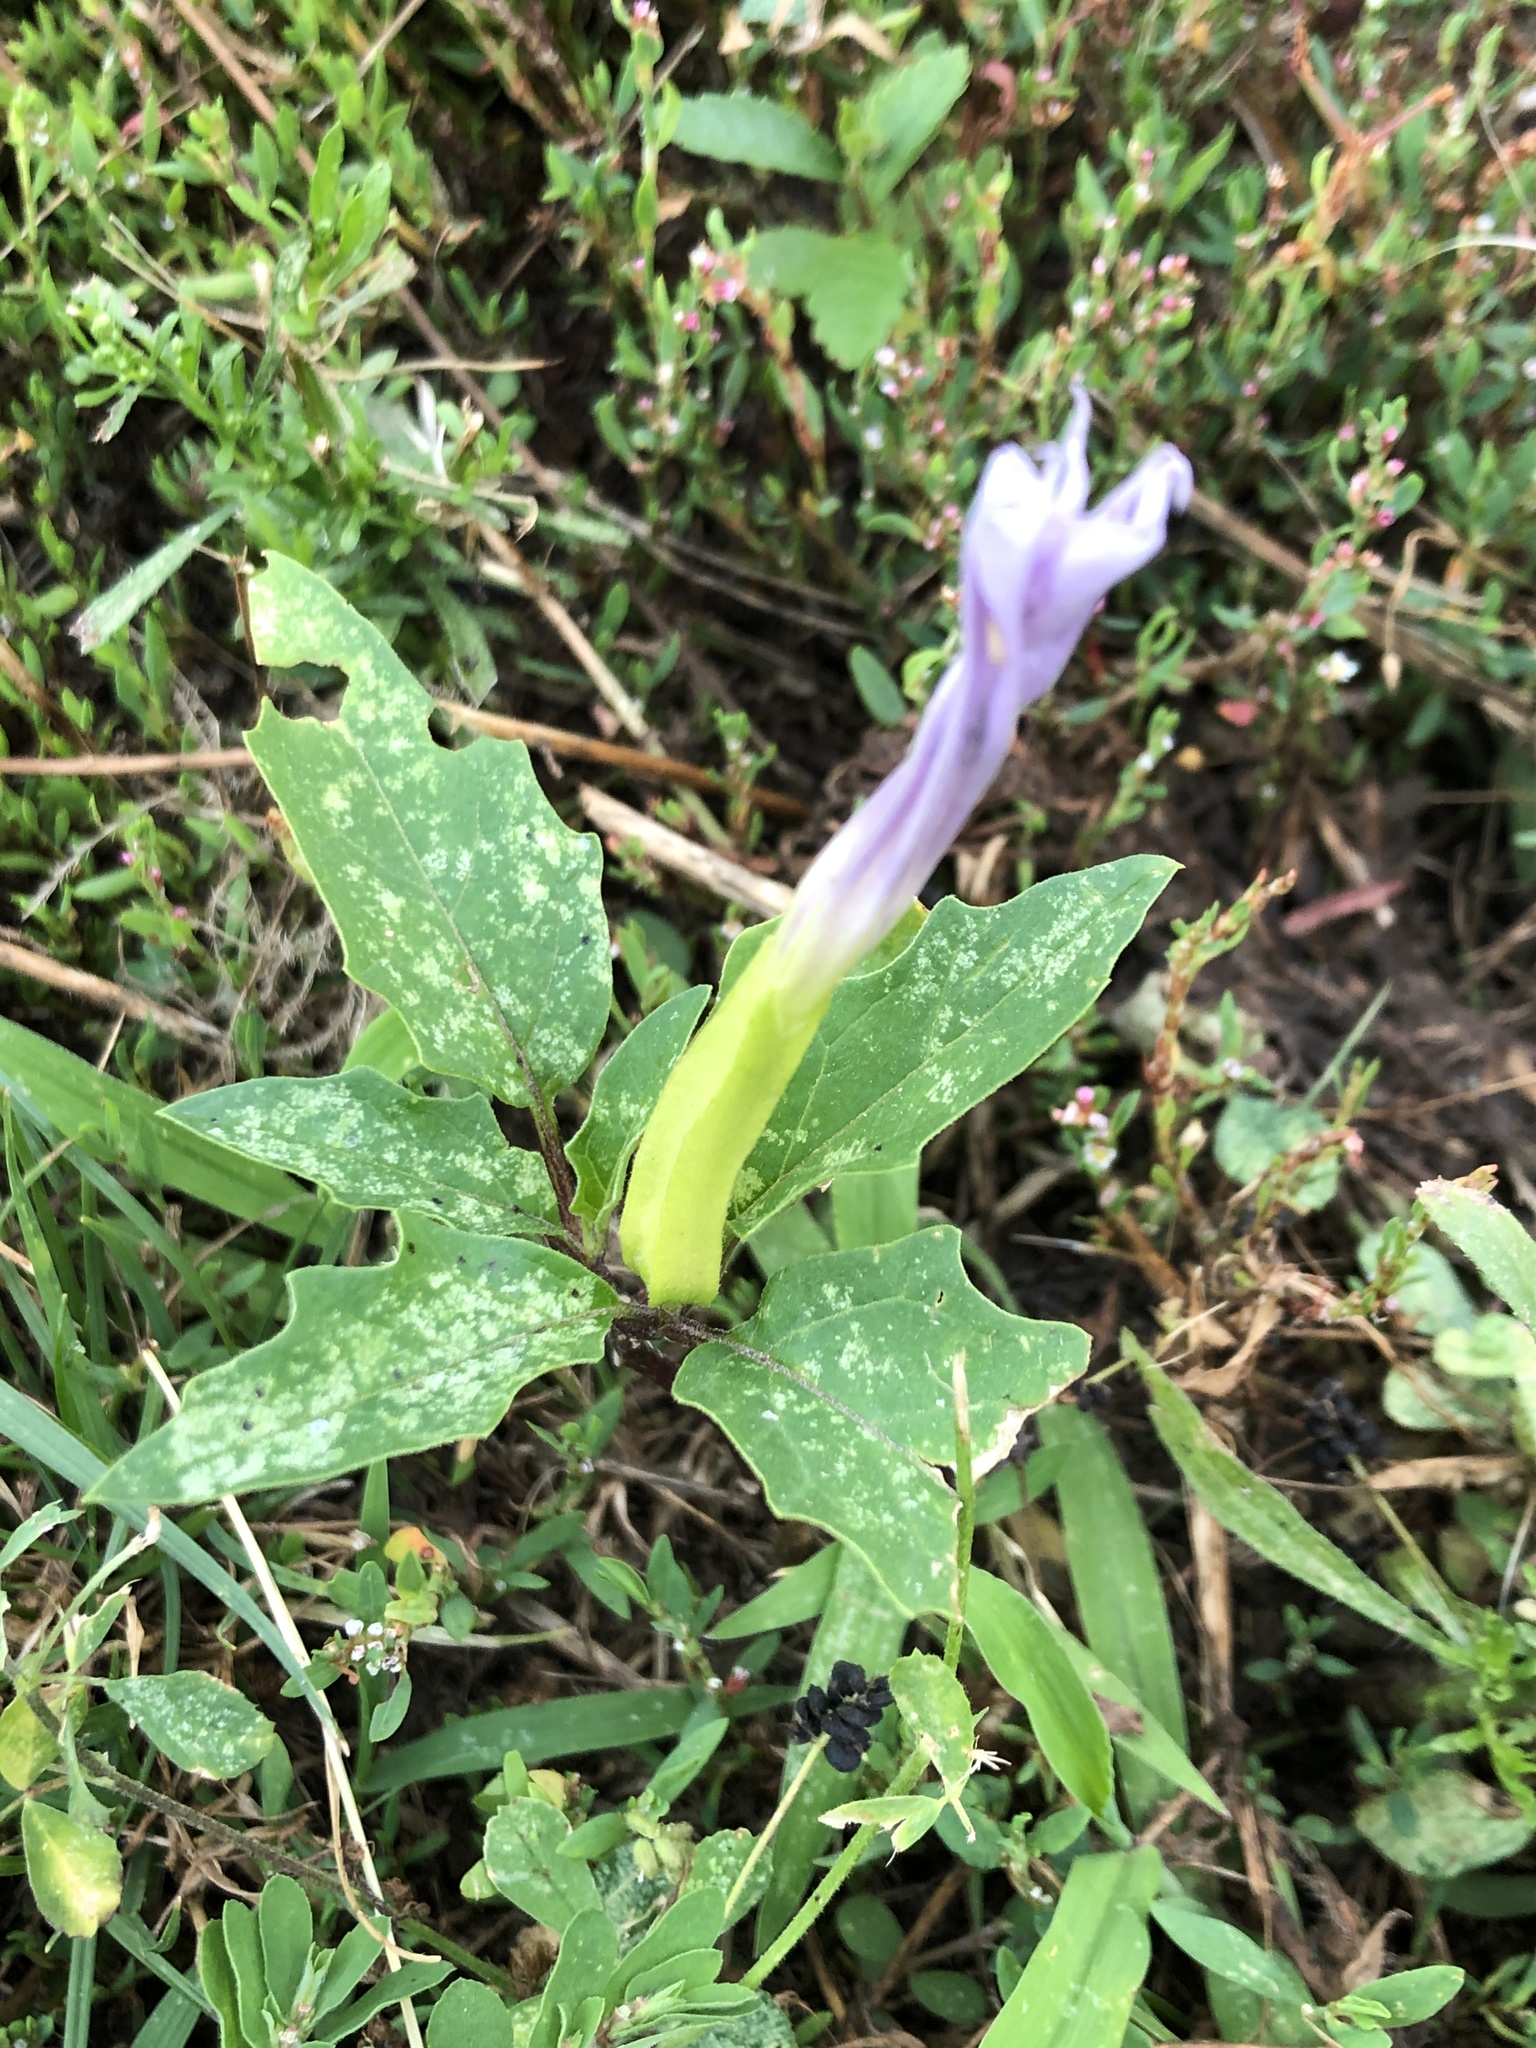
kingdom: Plantae
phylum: Tracheophyta
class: Magnoliopsida
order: Solanales
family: Solanaceae
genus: Datura
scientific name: Datura stramonium
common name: Thorn-apple
